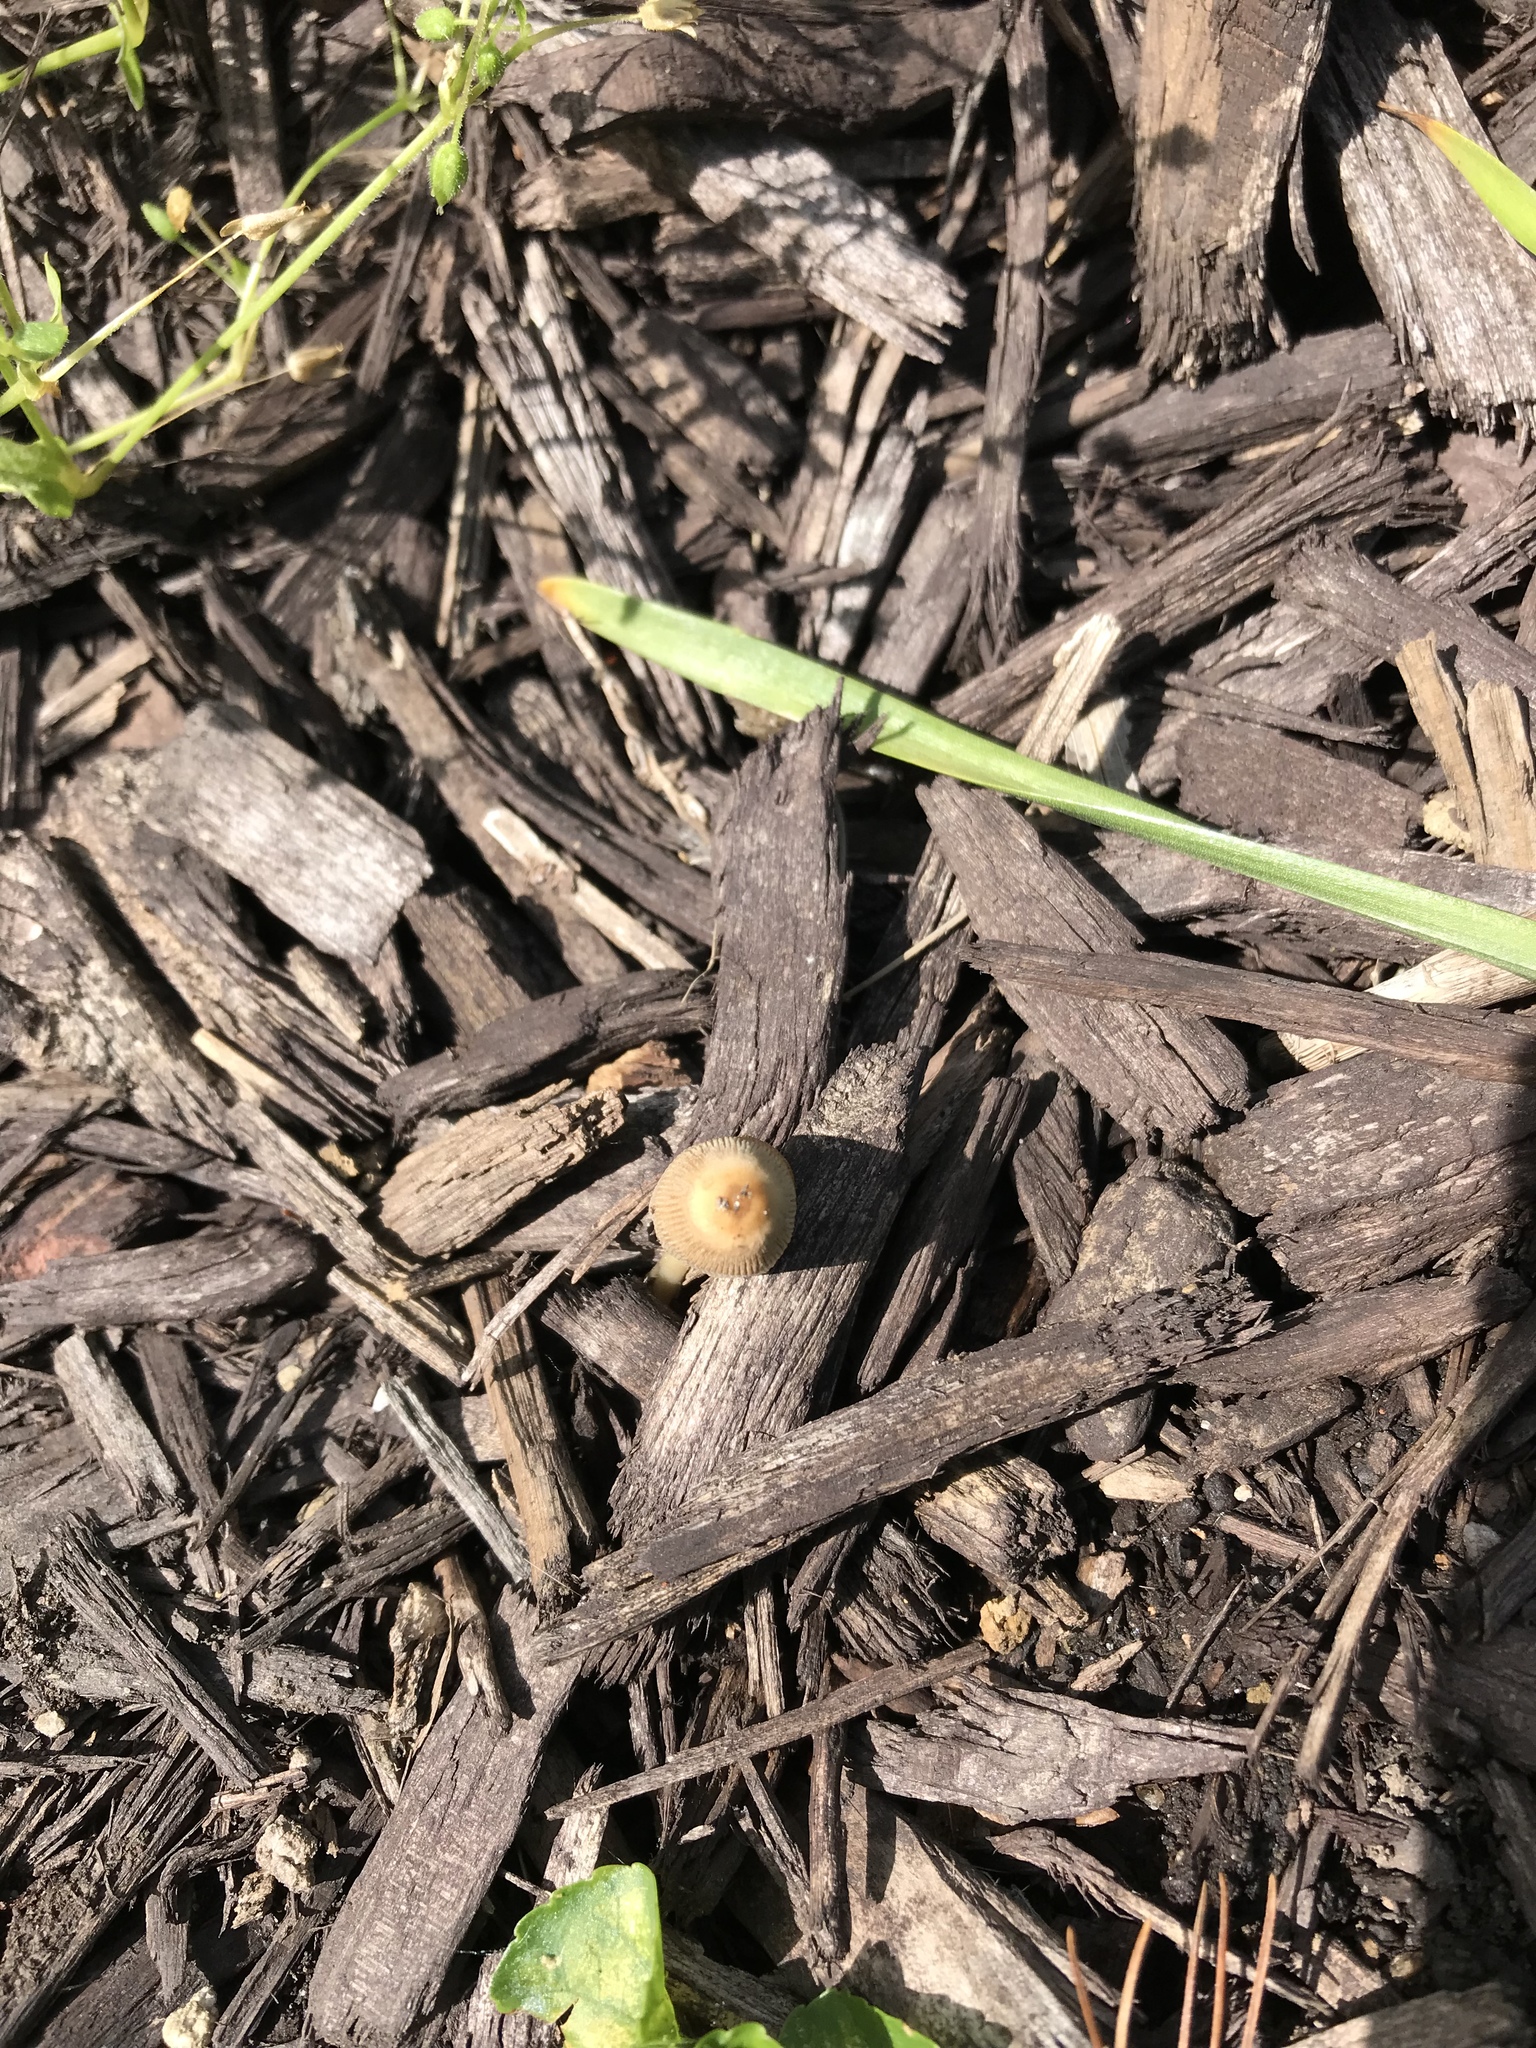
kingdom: Fungi
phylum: Basidiomycota
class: Agaricomycetes
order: Agaricales
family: Psathyrellaceae
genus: Parasola
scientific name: Parasola setulosa
